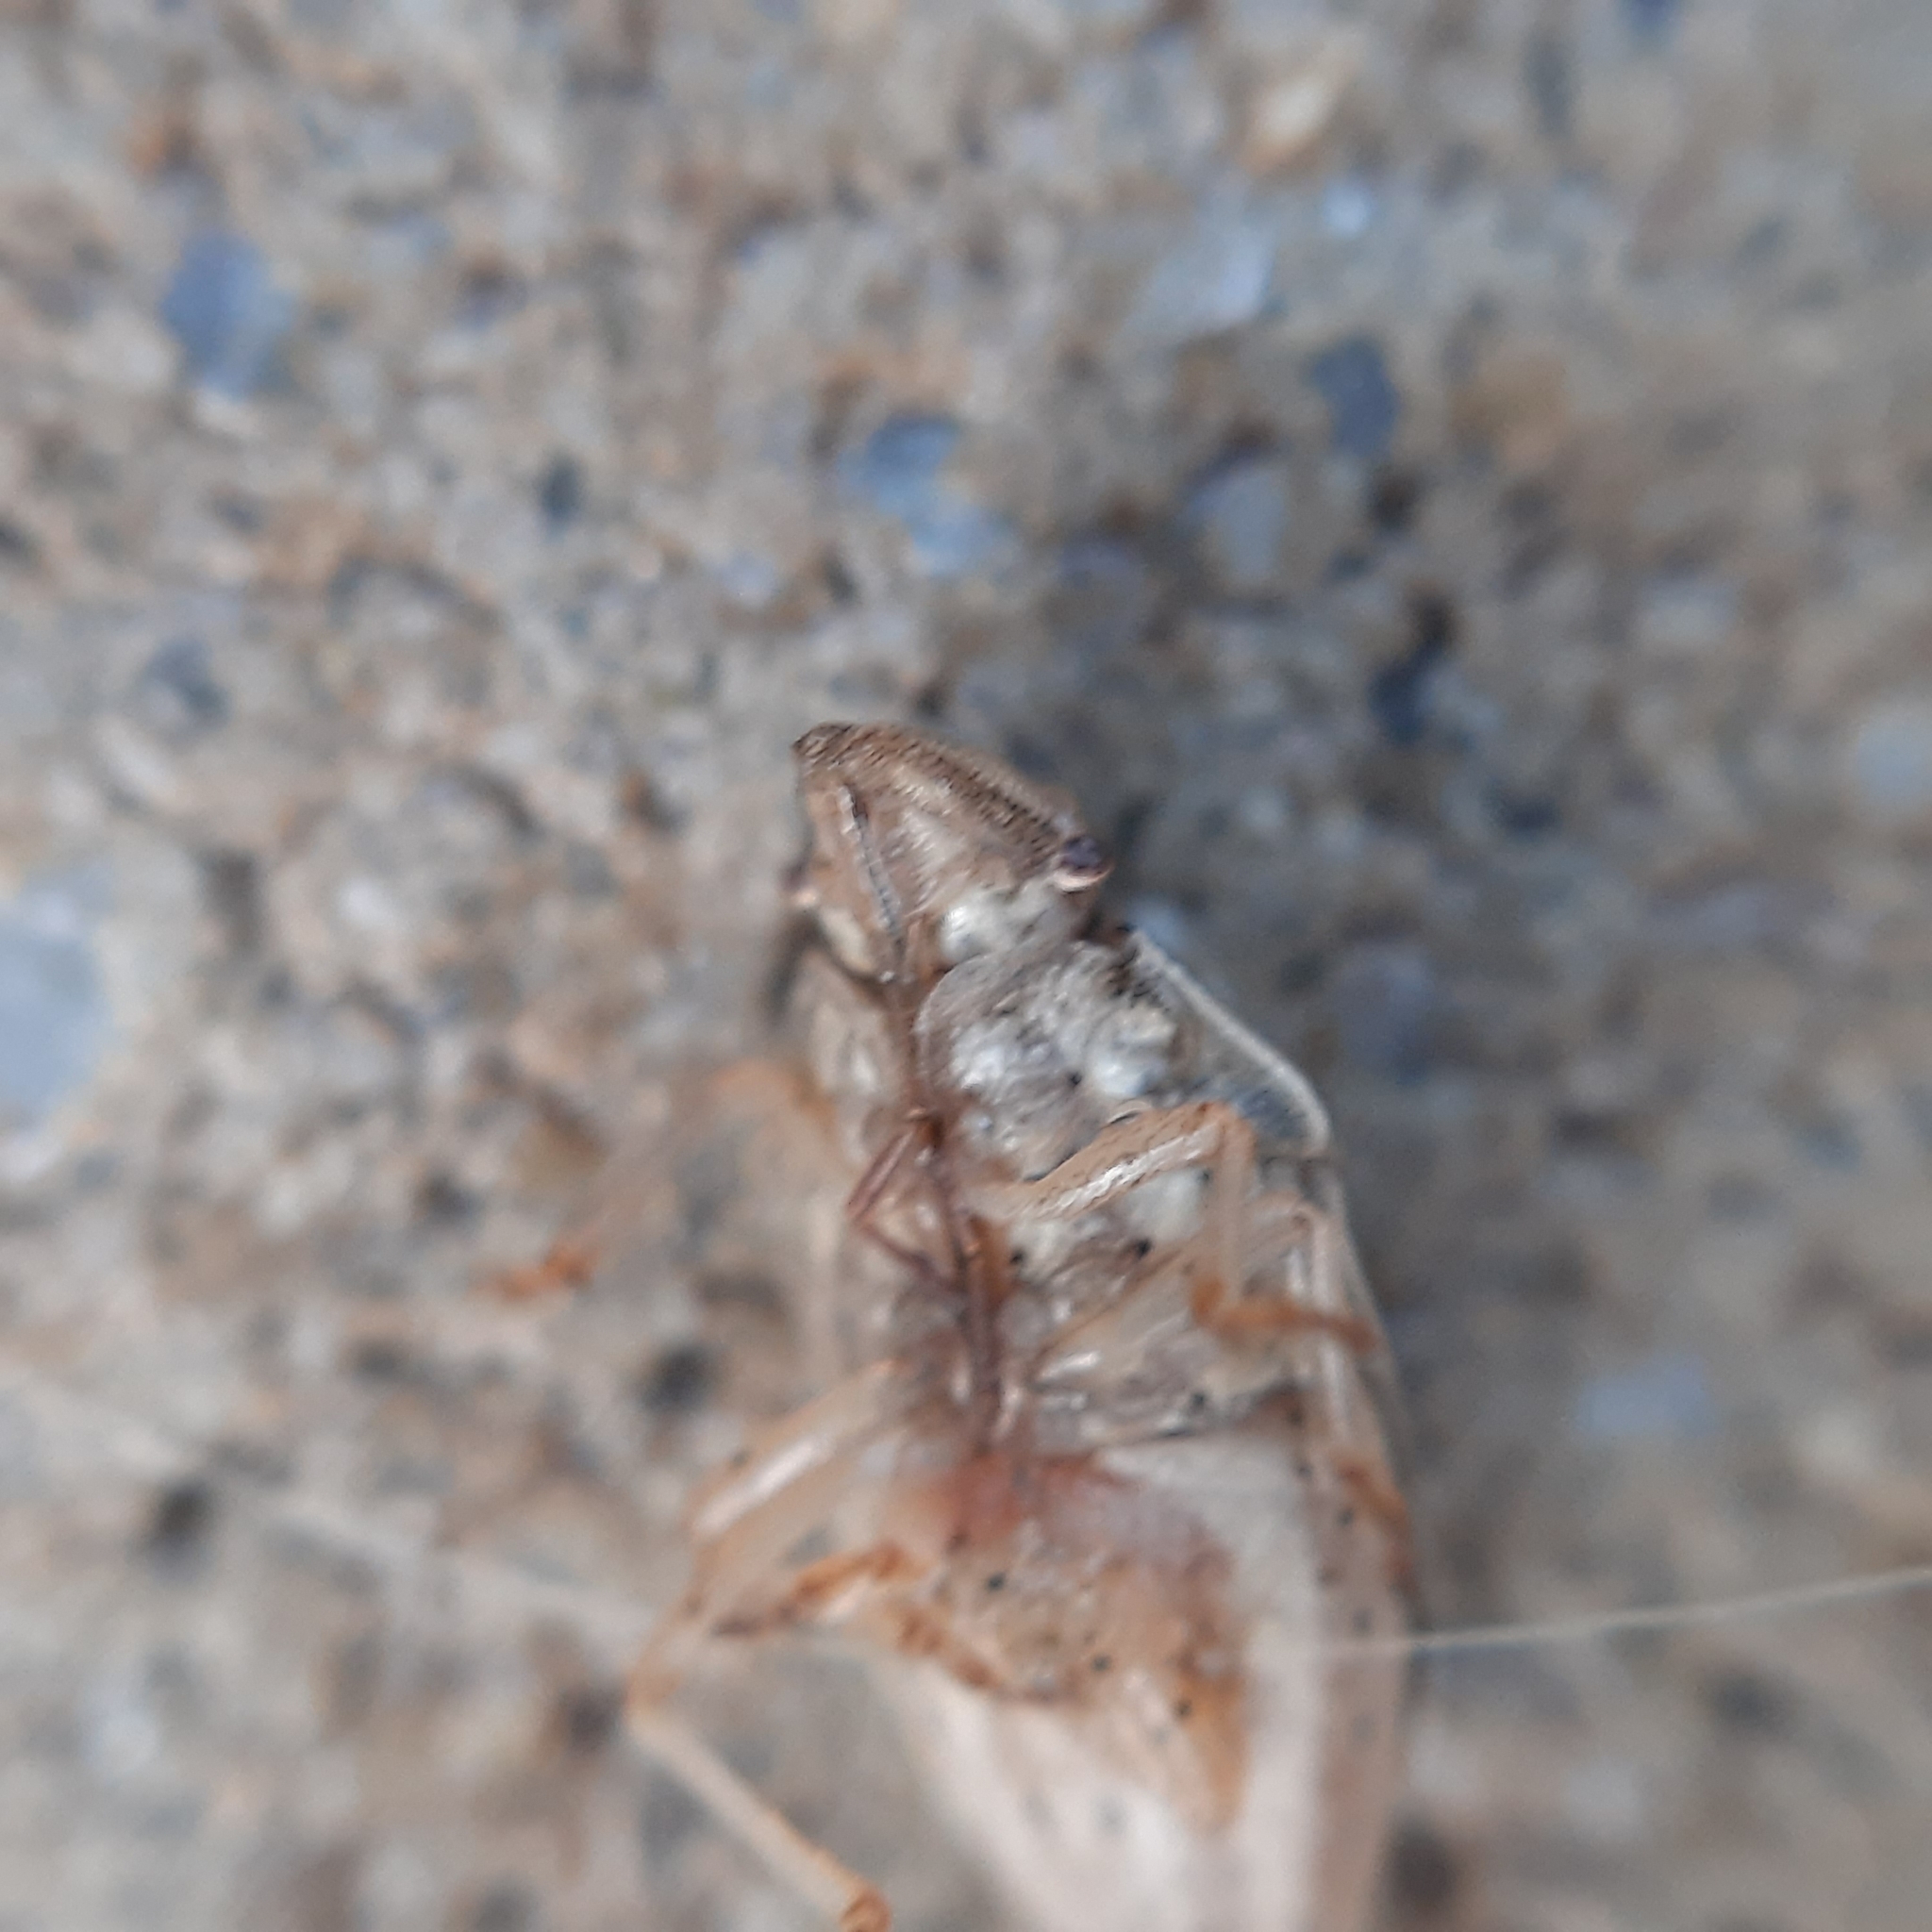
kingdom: Animalia
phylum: Arthropoda
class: Insecta
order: Hemiptera
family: Pentatomidae
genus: Aelia
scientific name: Aelia acuminata
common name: Bishop's mitre
